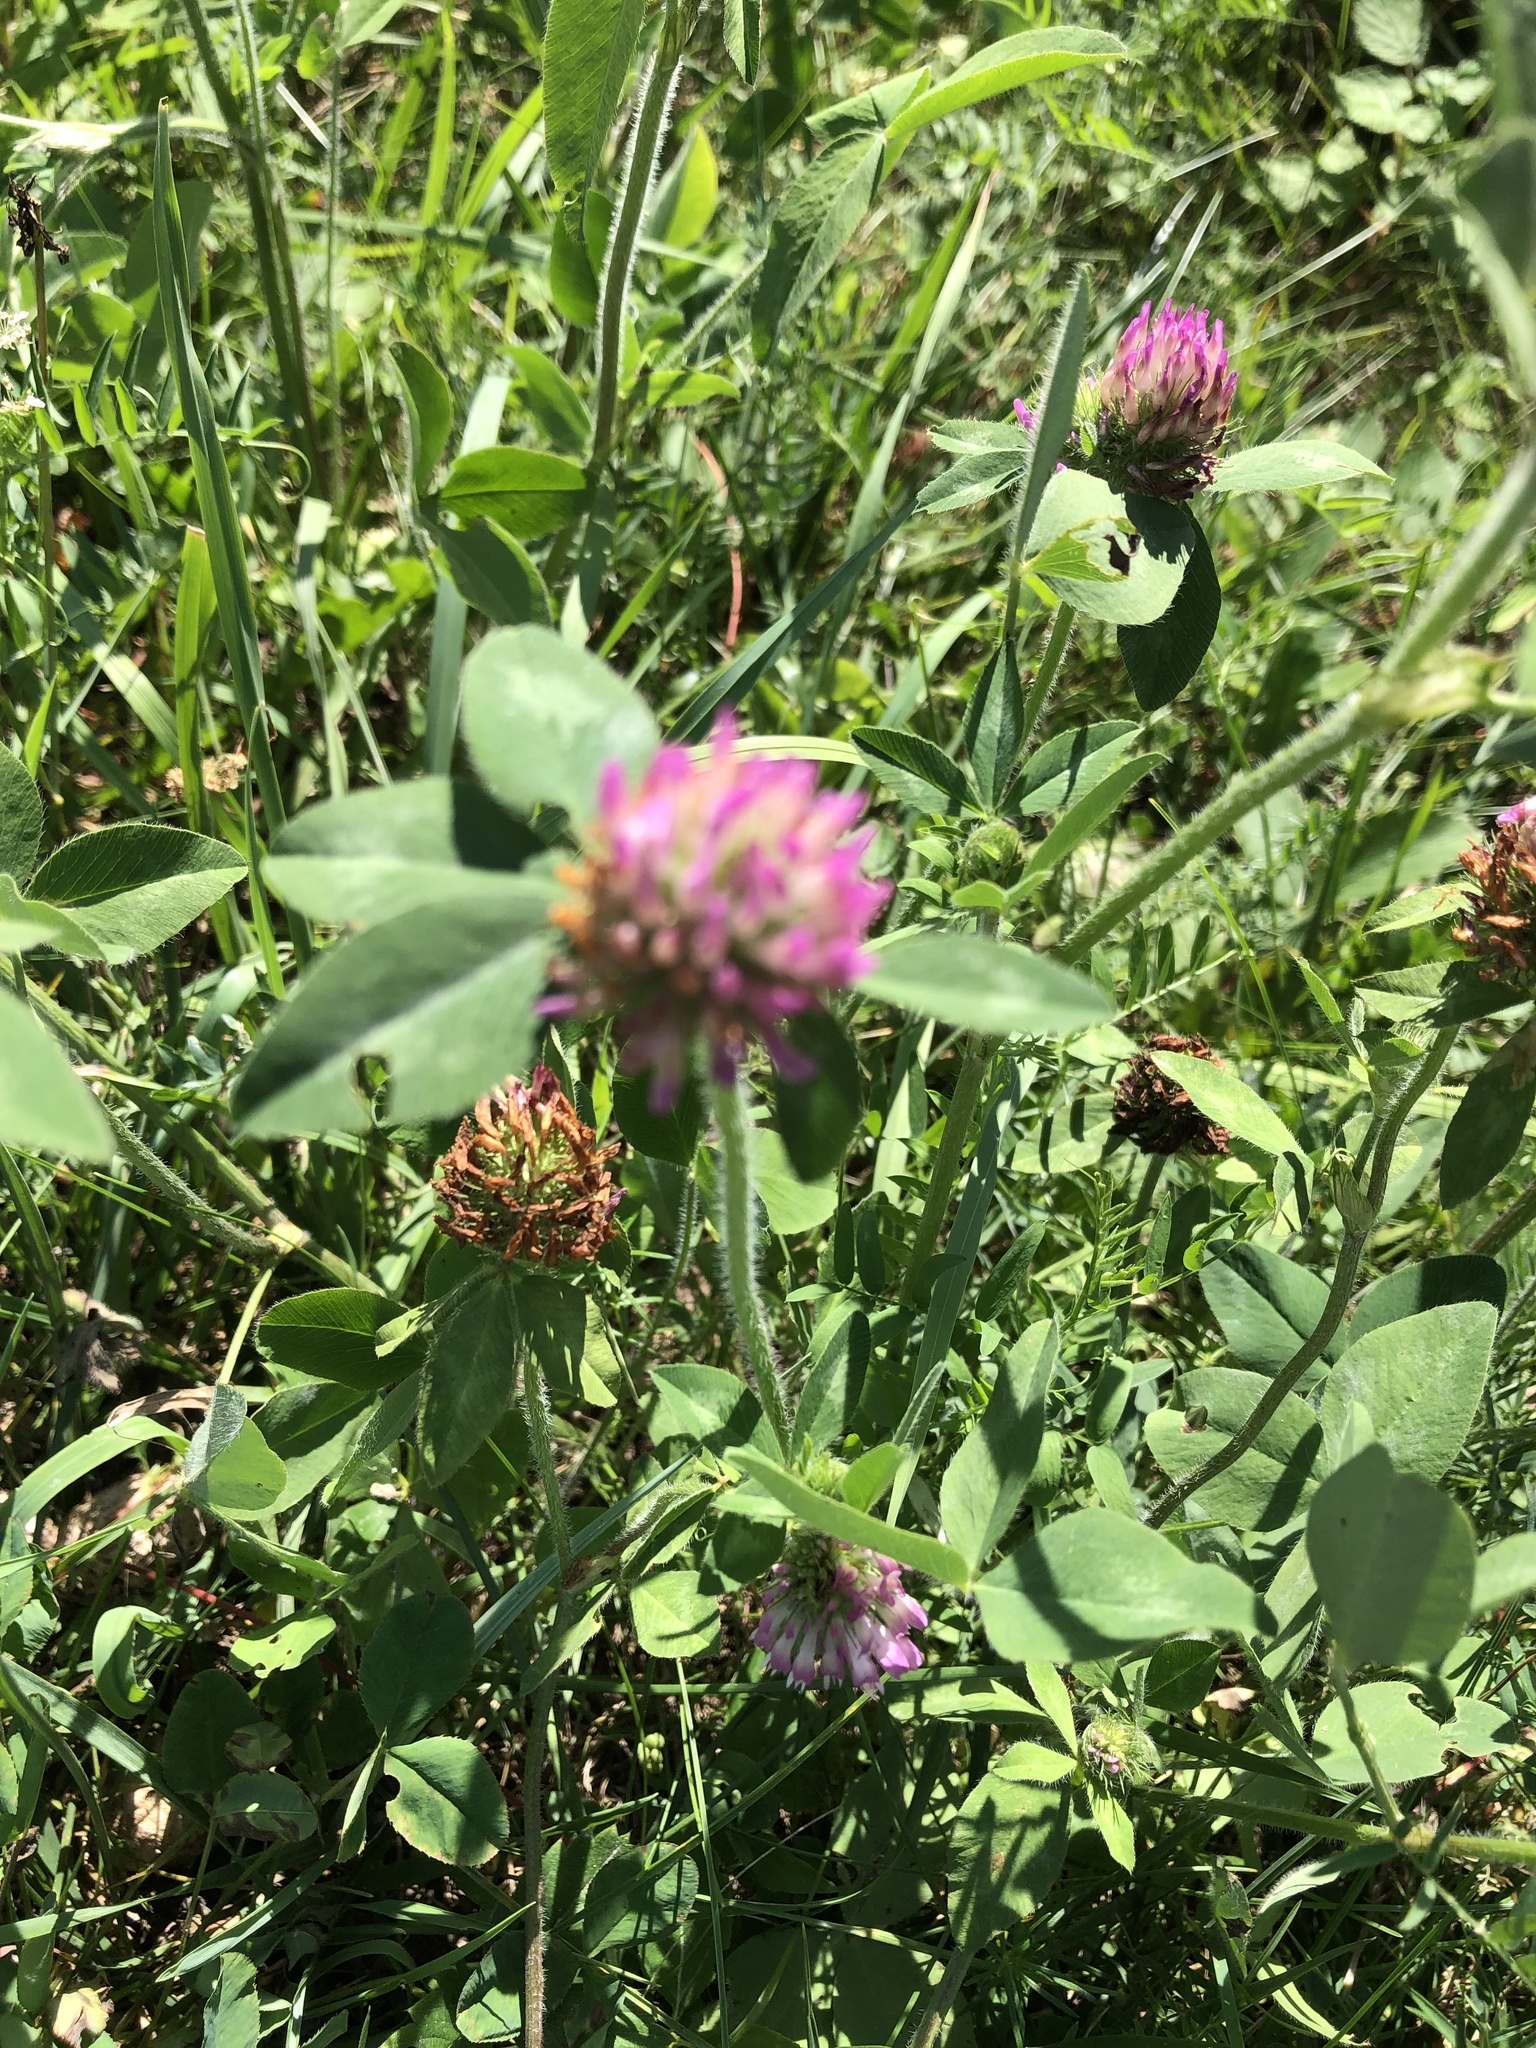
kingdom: Plantae
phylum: Tracheophyta
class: Magnoliopsida
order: Fabales
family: Fabaceae
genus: Trifolium
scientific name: Trifolium pratense
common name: Red clover
